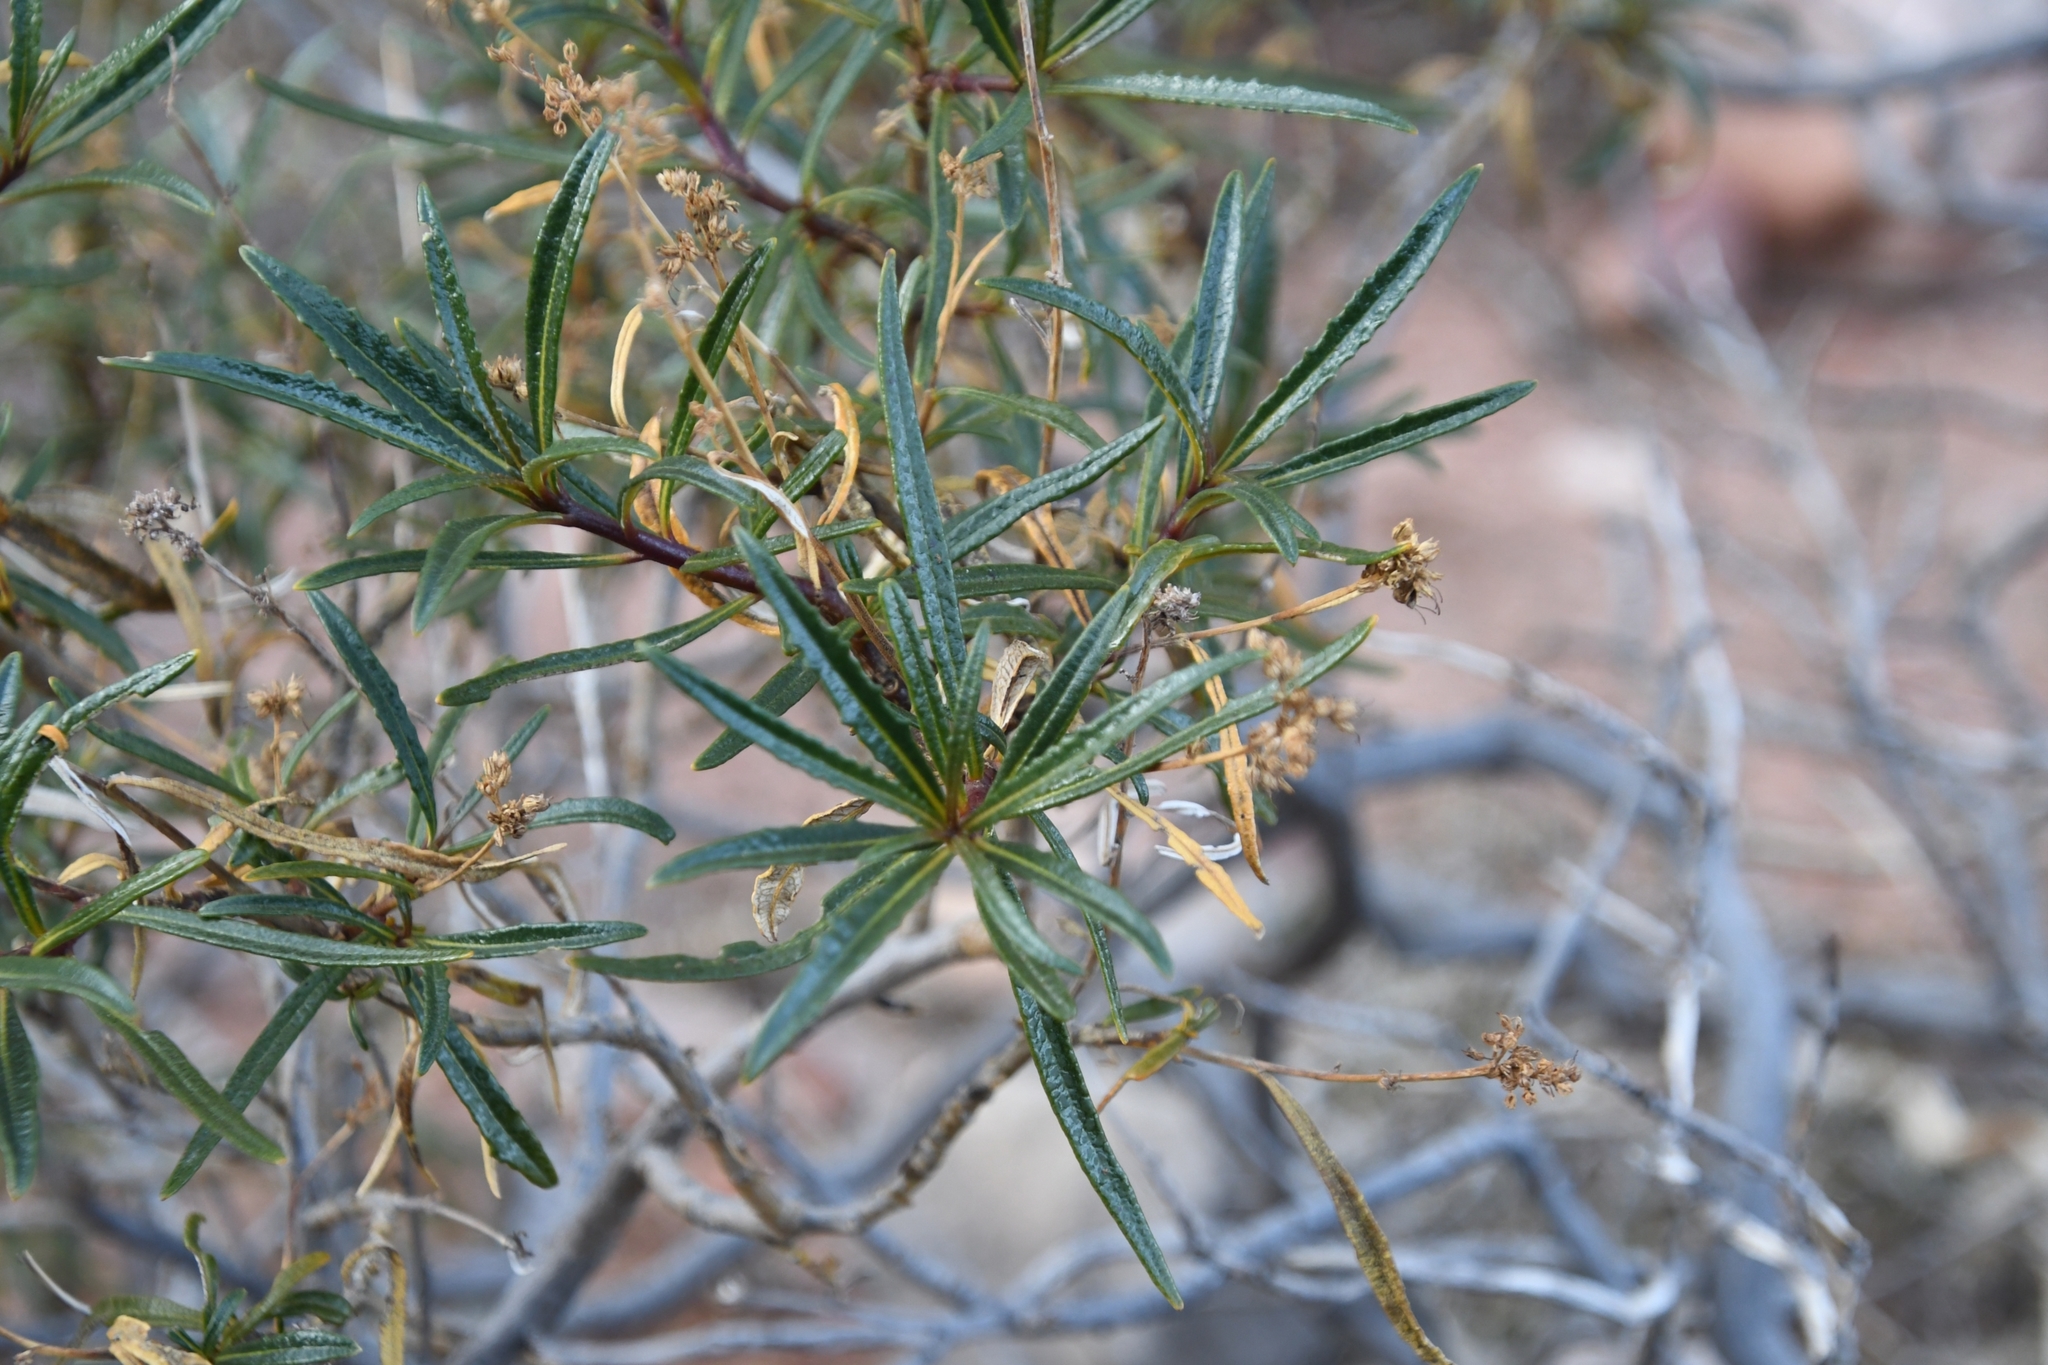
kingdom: Plantae
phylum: Tracheophyta
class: Magnoliopsida
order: Boraginales
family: Namaceae
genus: Eriodictyon
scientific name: Eriodictyon angustifolium
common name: Narrow-leaf yerba santa
